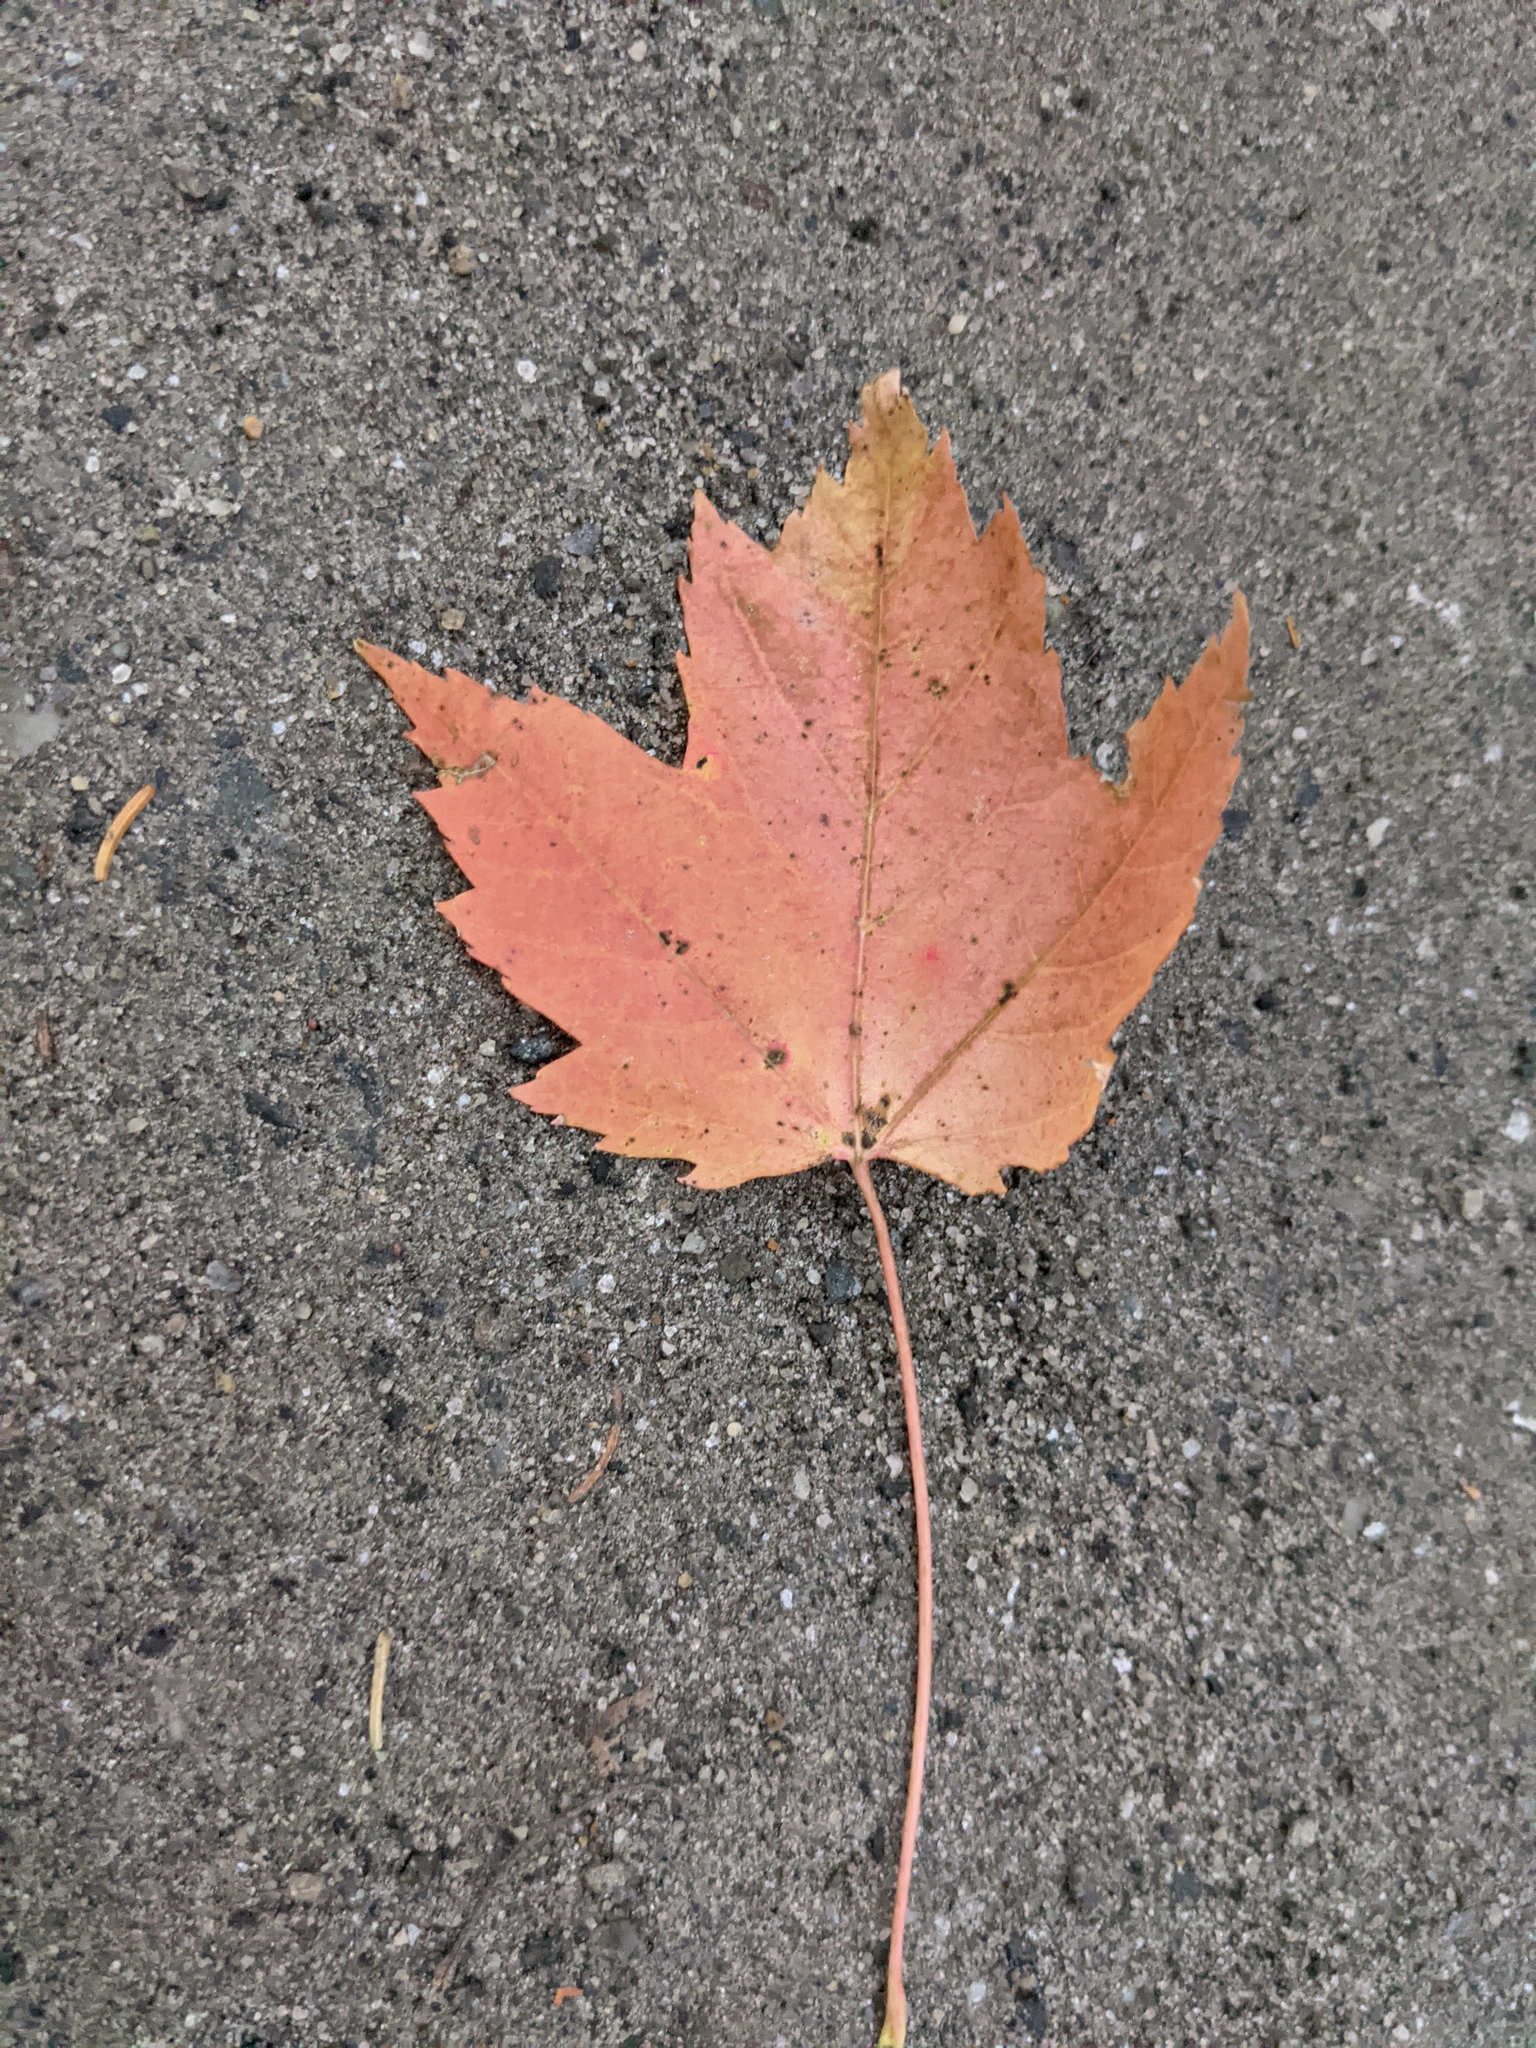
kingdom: Plantae
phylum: Tracheophyta
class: Magnoliopsida
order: Sapindales
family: Sapindaceae
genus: Acer
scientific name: Acer rubrum
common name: Red maple
